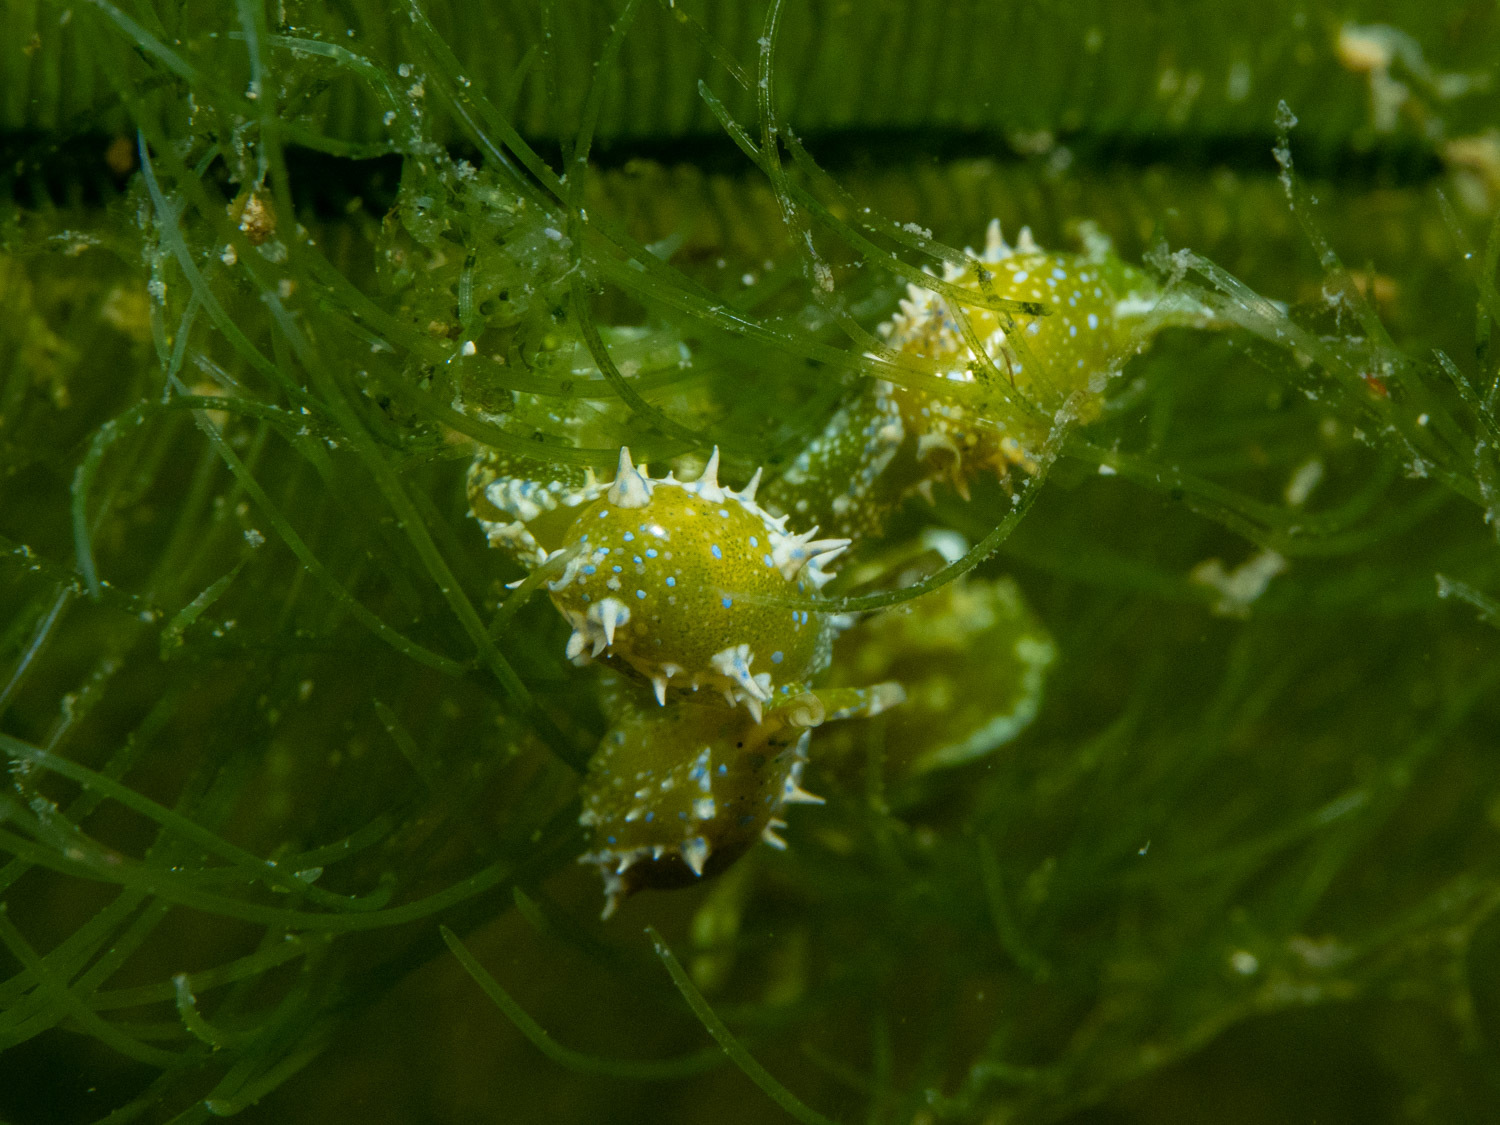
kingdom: Animalia
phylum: Mollusca
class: Gastropoda
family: Oxynoidae
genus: Oxynoe
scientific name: Oxynoe viridis
